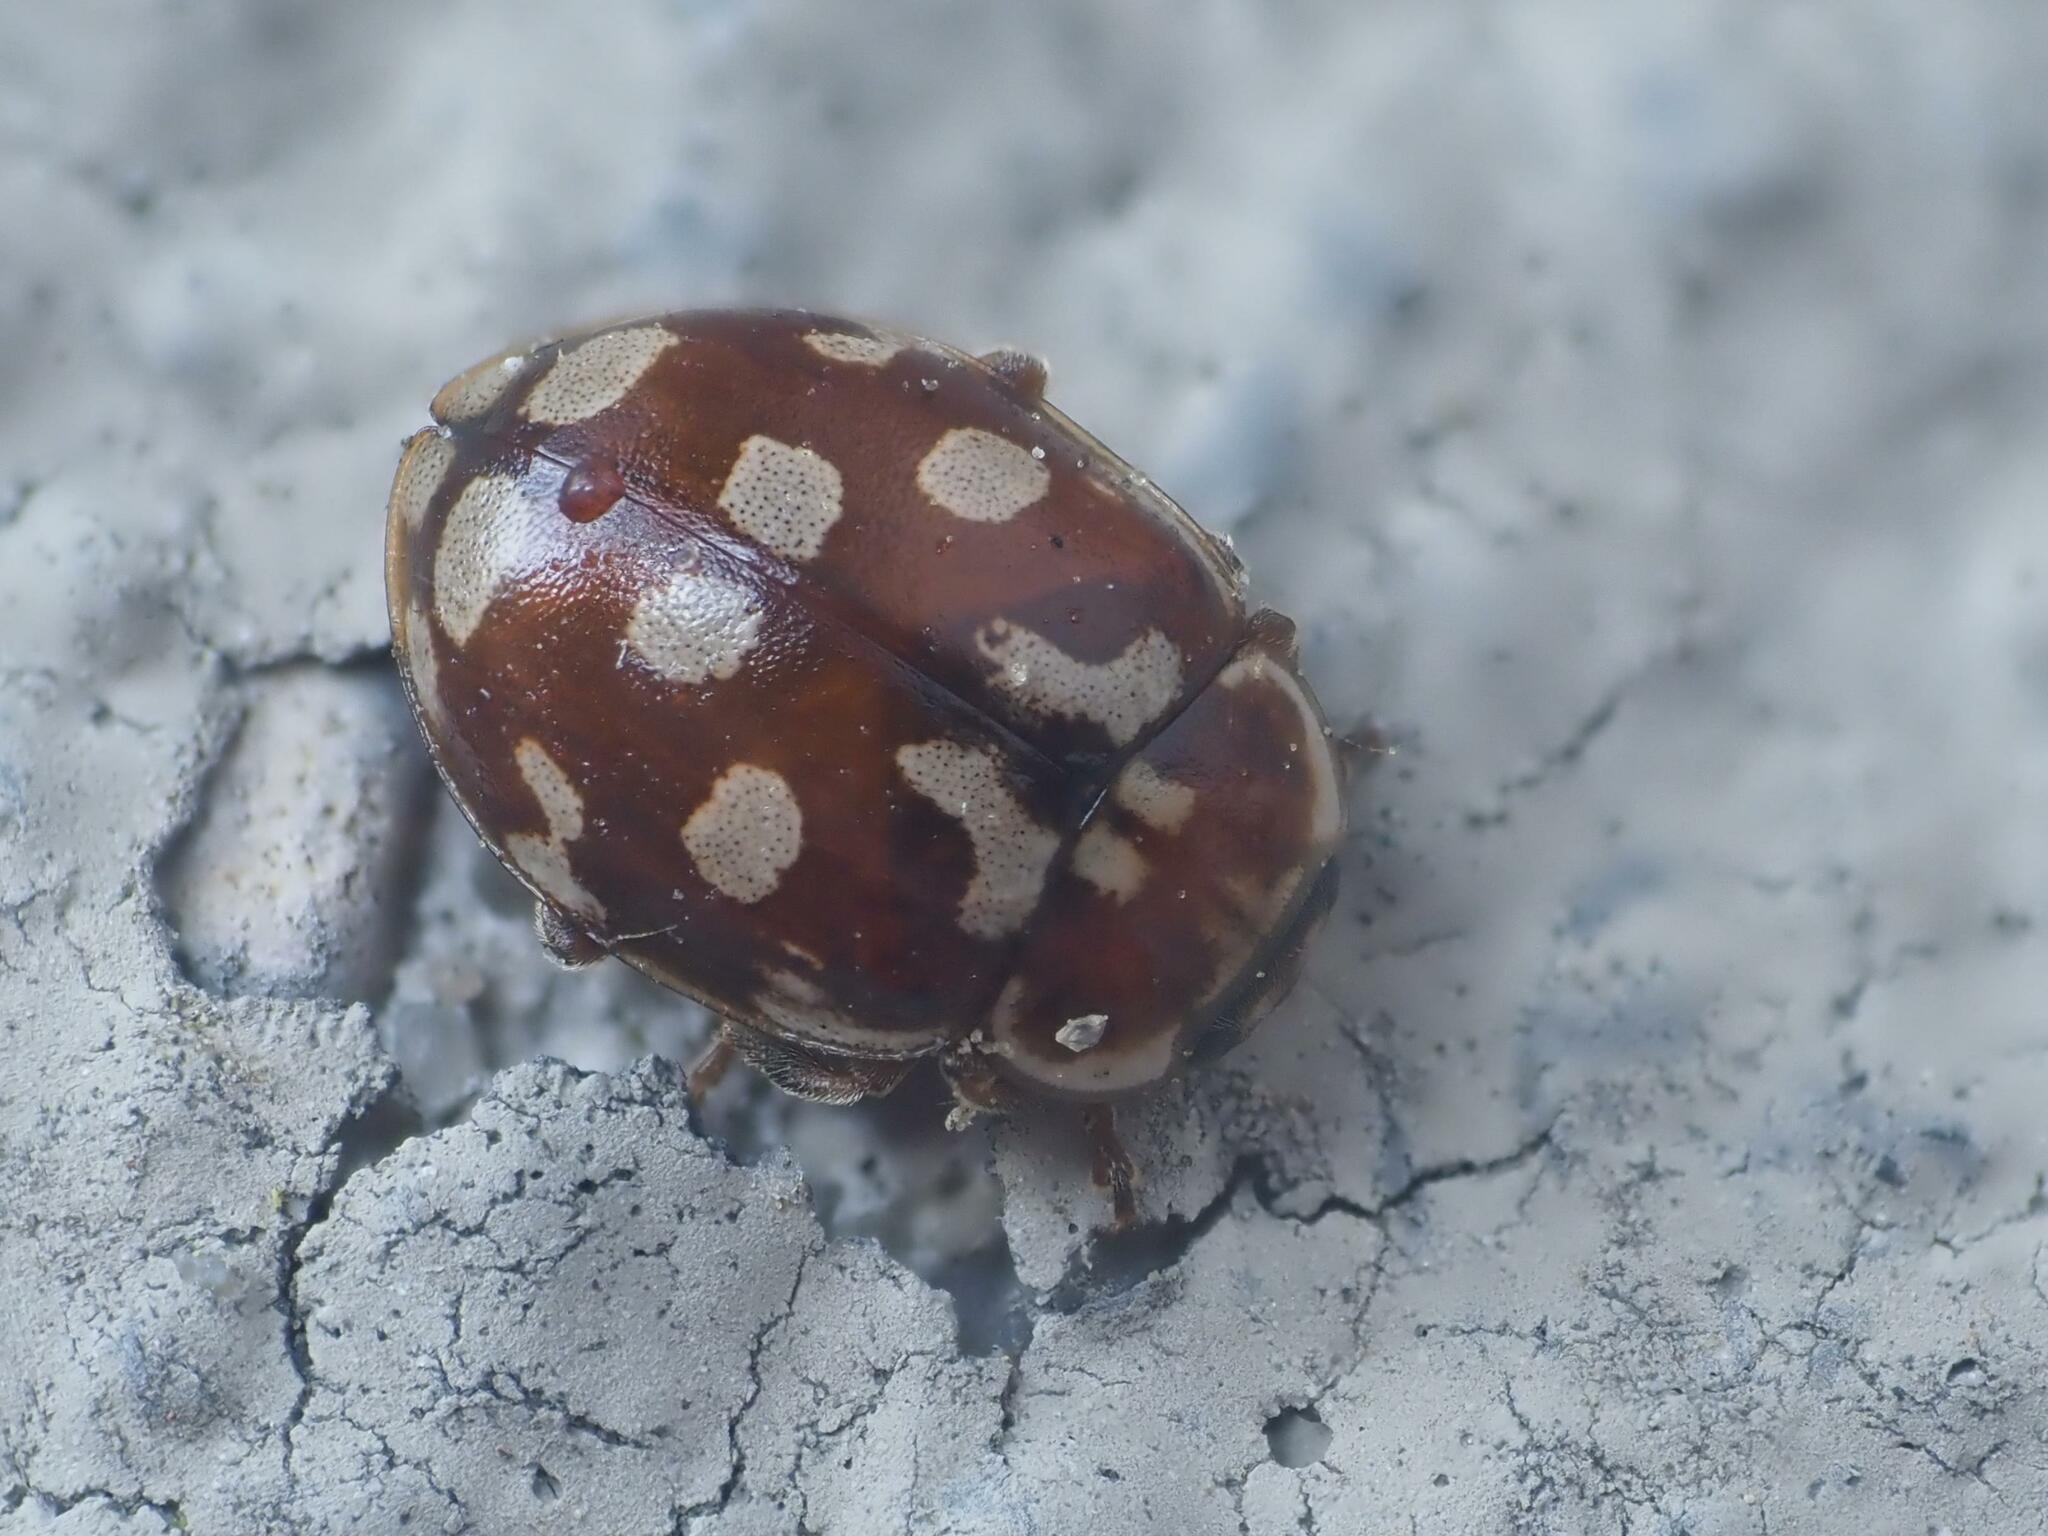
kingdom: Animalia
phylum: Arthropoda
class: Insecta
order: Coleoptera
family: Coccinellidae
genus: Myrrha
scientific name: Myrrha octodecimguttata
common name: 18-spot ladybird
